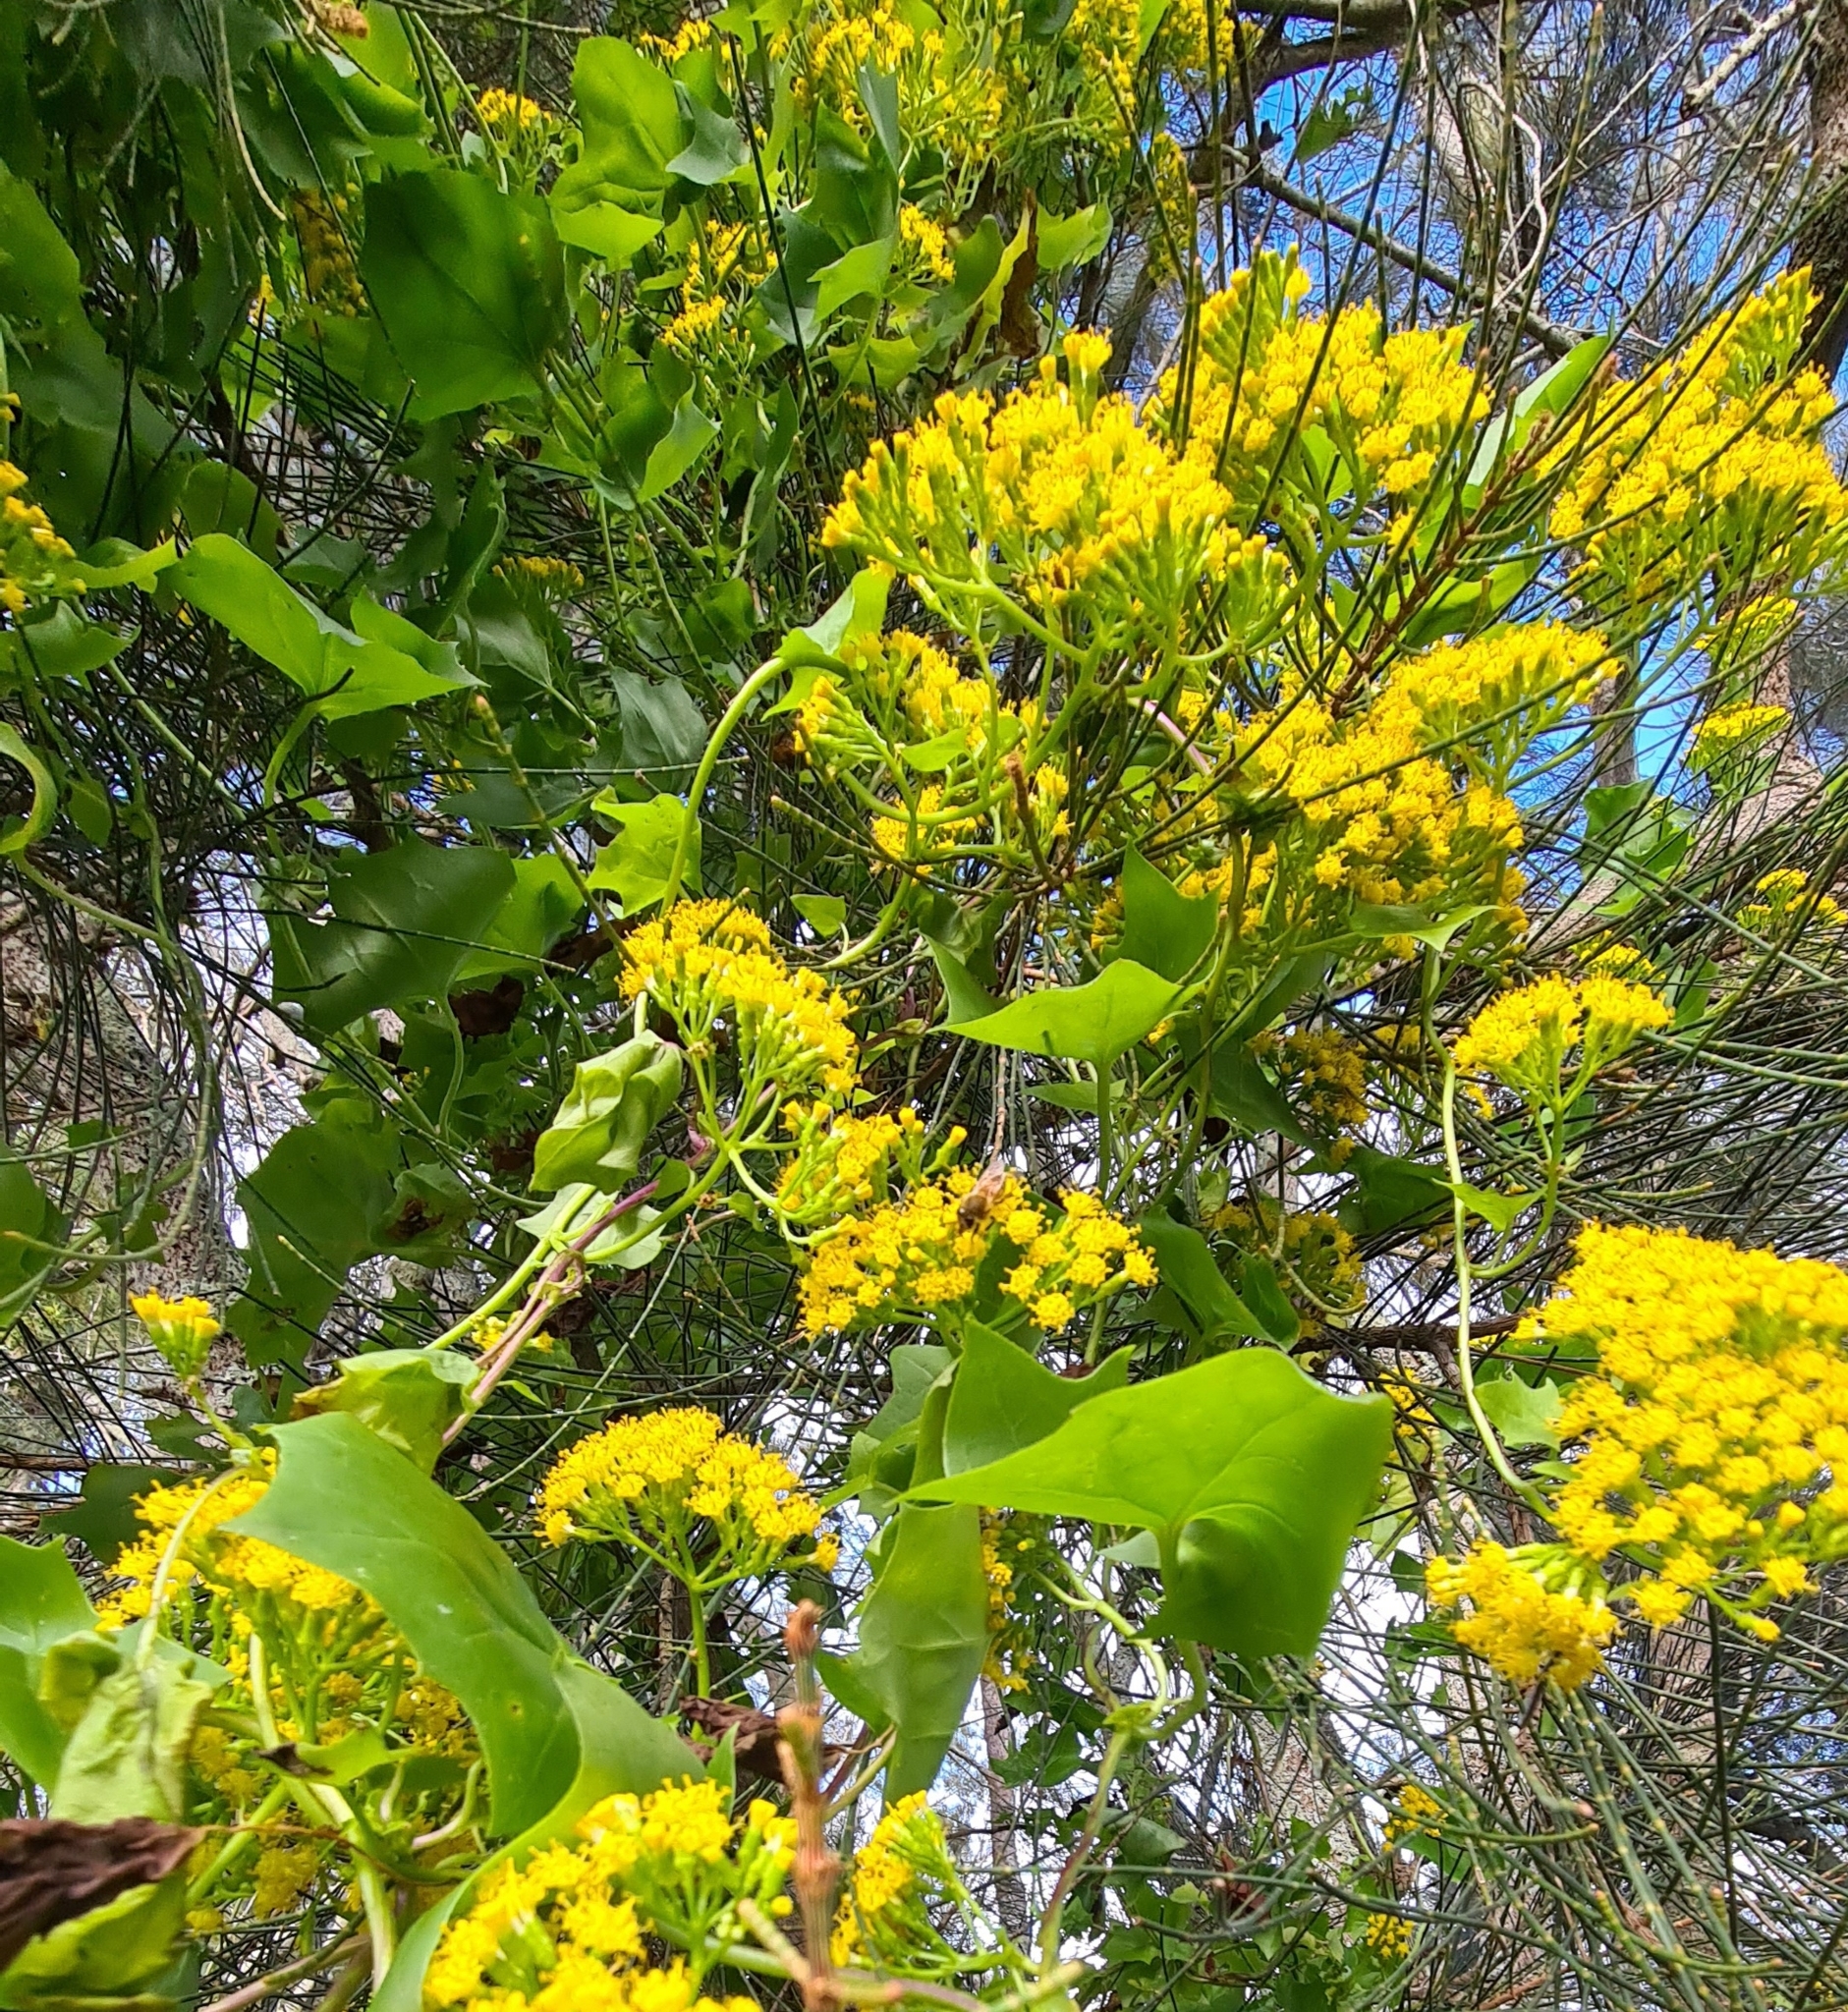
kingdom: Plantae
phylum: Tracheophyta
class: Magnoliopsida
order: Asterales
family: Asteraceae
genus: Delairea
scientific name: Delairea odorata
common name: Cape-ivy
